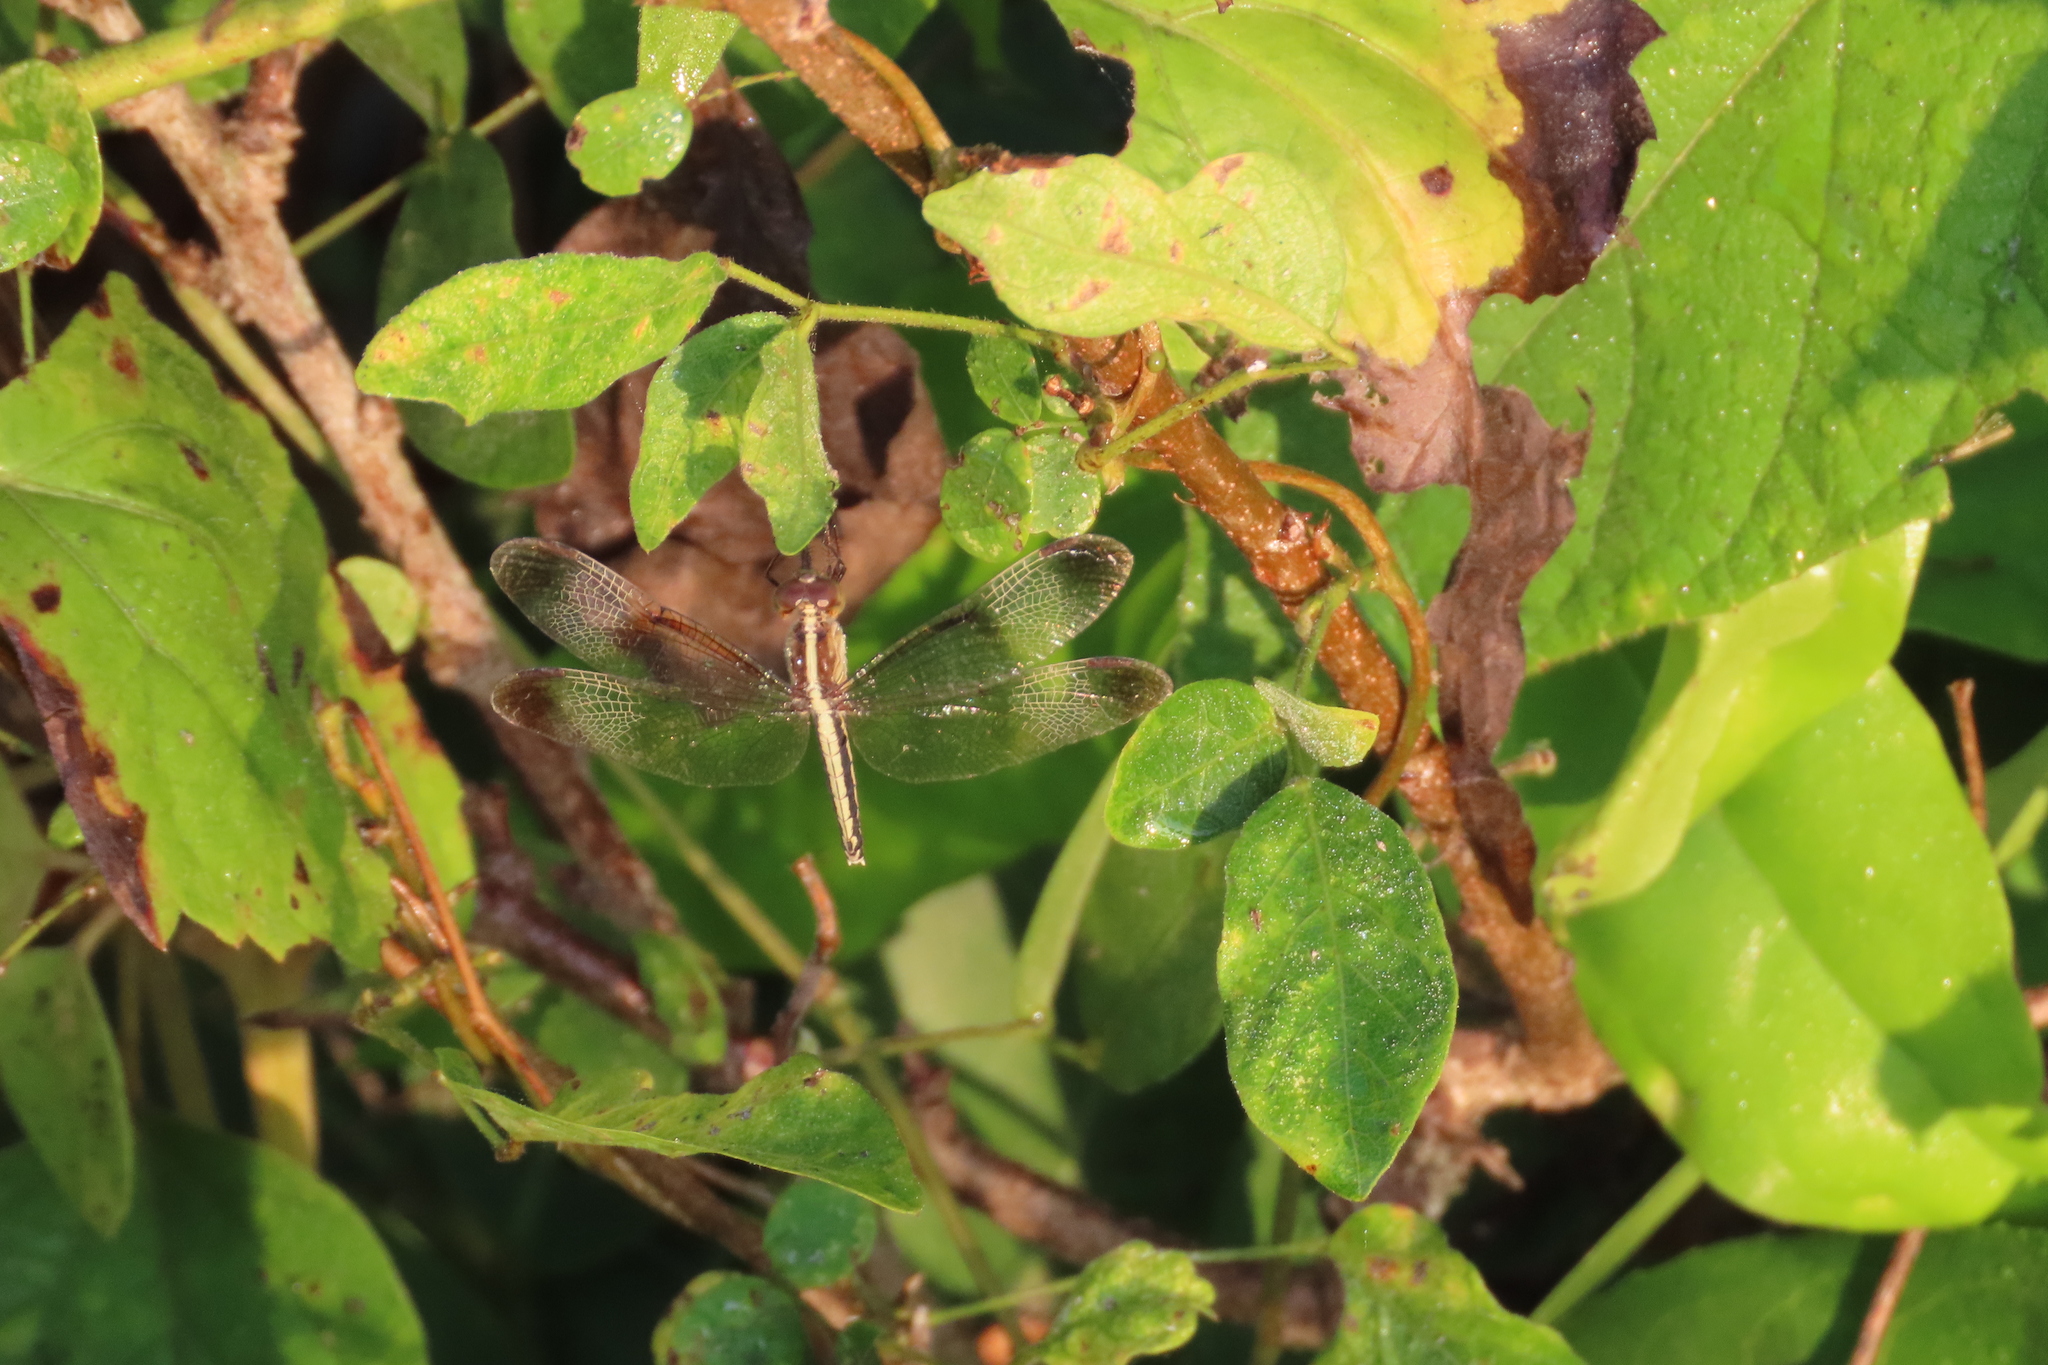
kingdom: Animalia
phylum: Arthropoda
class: Insecta
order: Odonata
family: Libellulidae
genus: Neurothemis
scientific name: Neurothemis tullia
